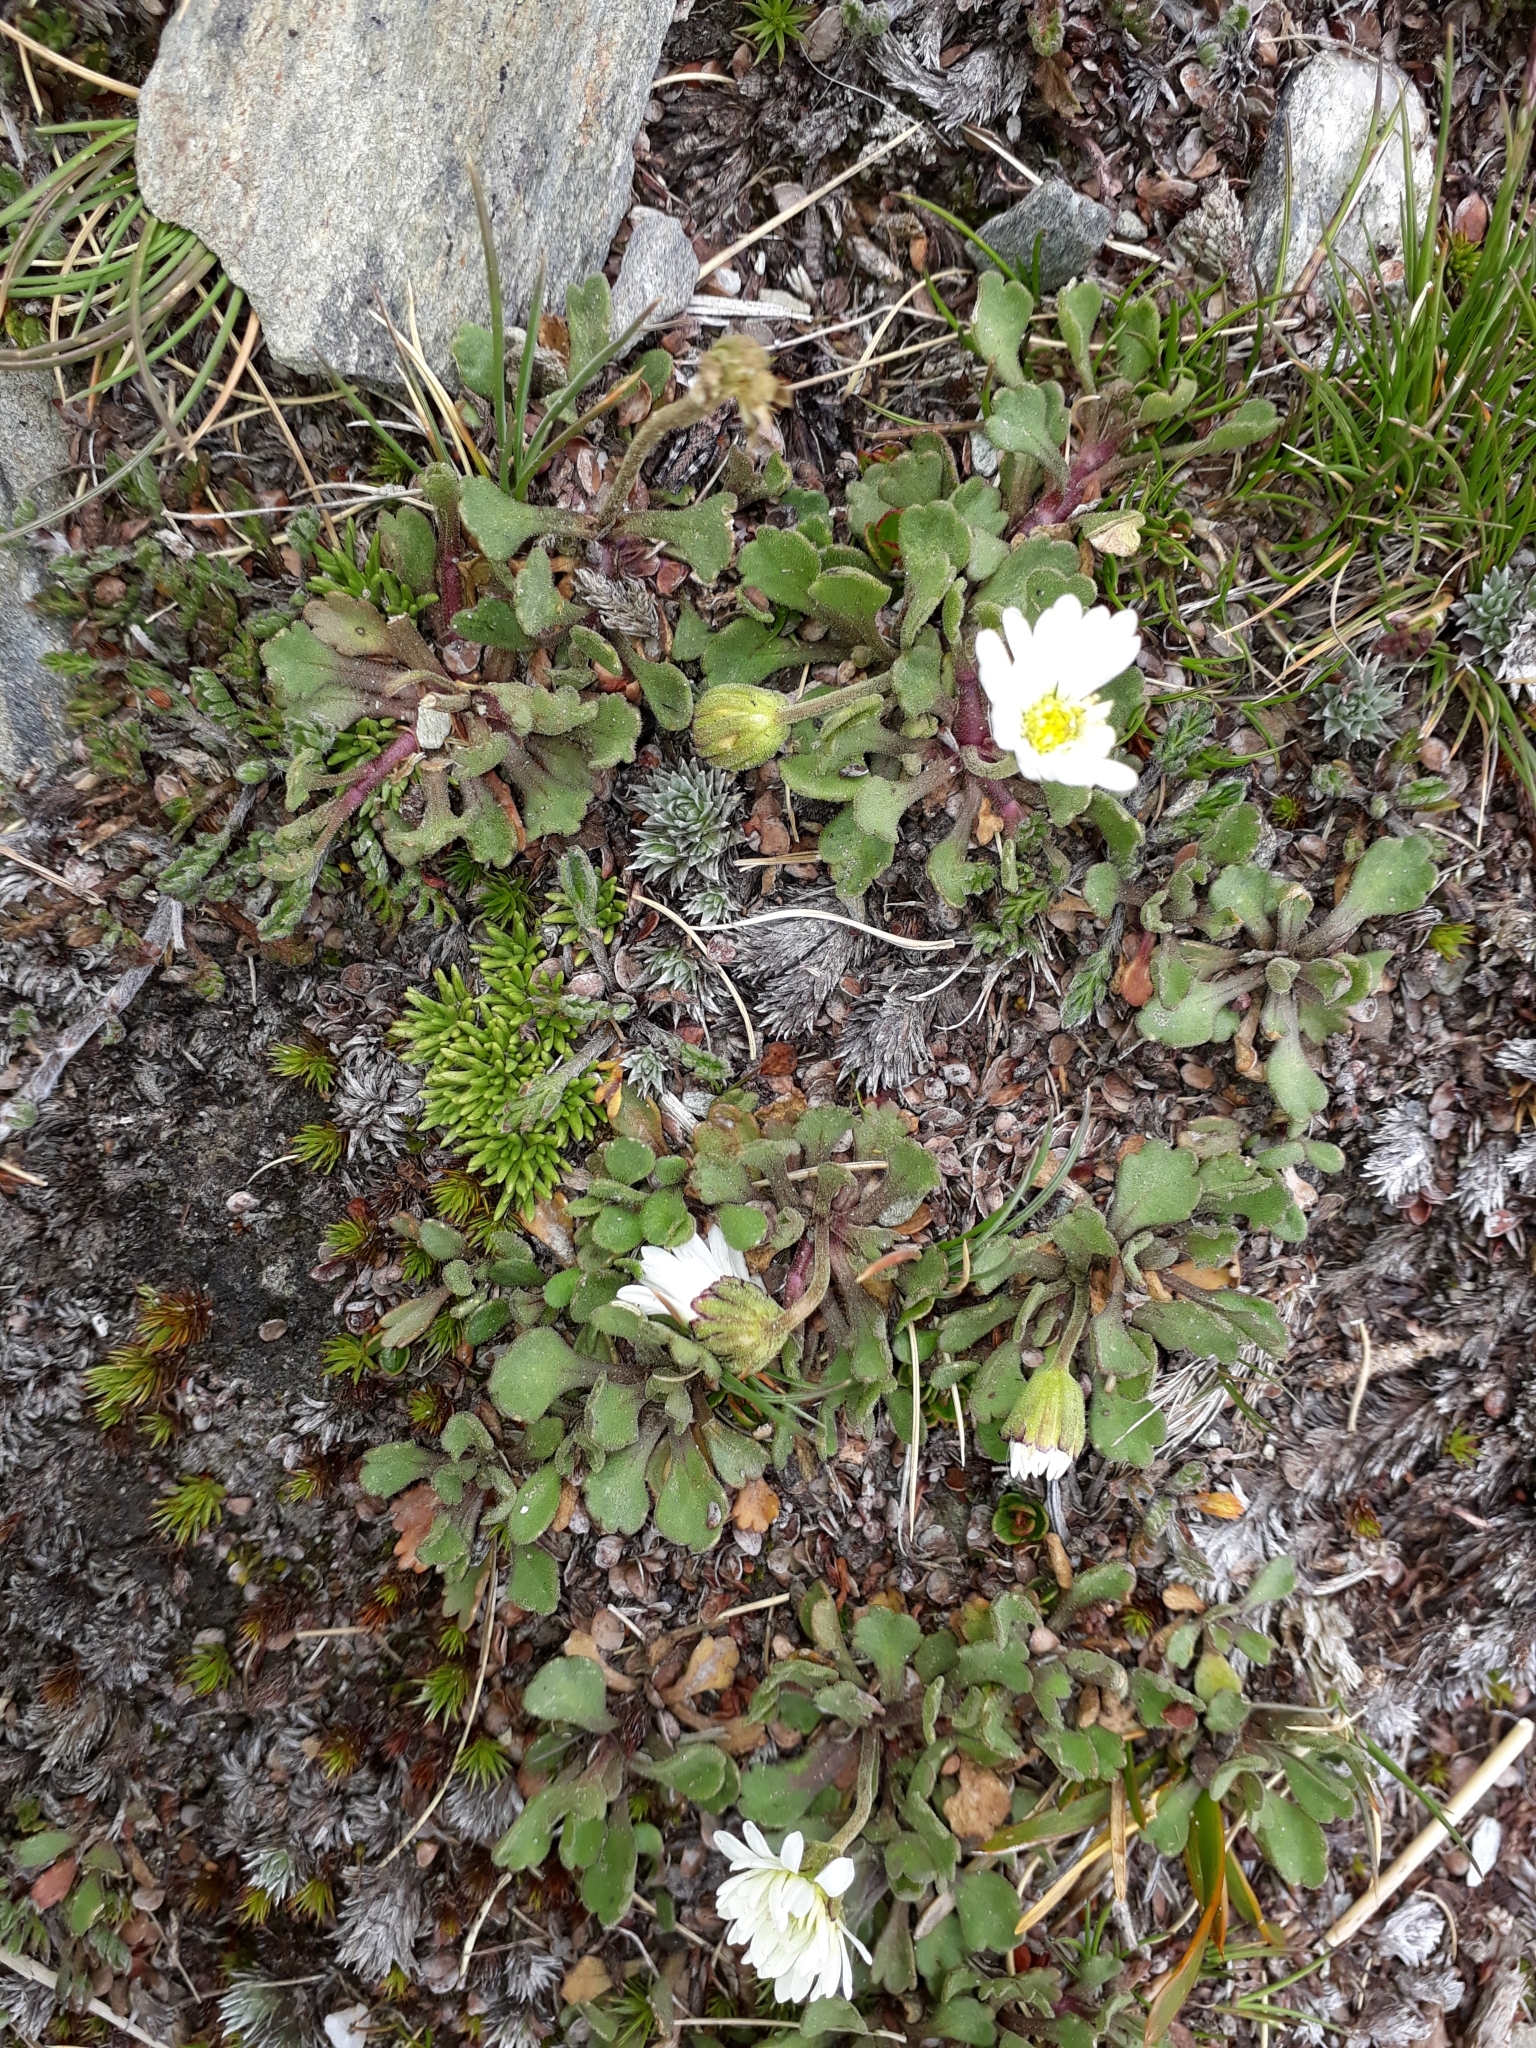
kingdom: Plantae
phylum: Tracheophyta
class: Magnoliopsida
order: Asterales
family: Asteraceae
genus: Brachyscome
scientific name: Brachyscome montana
